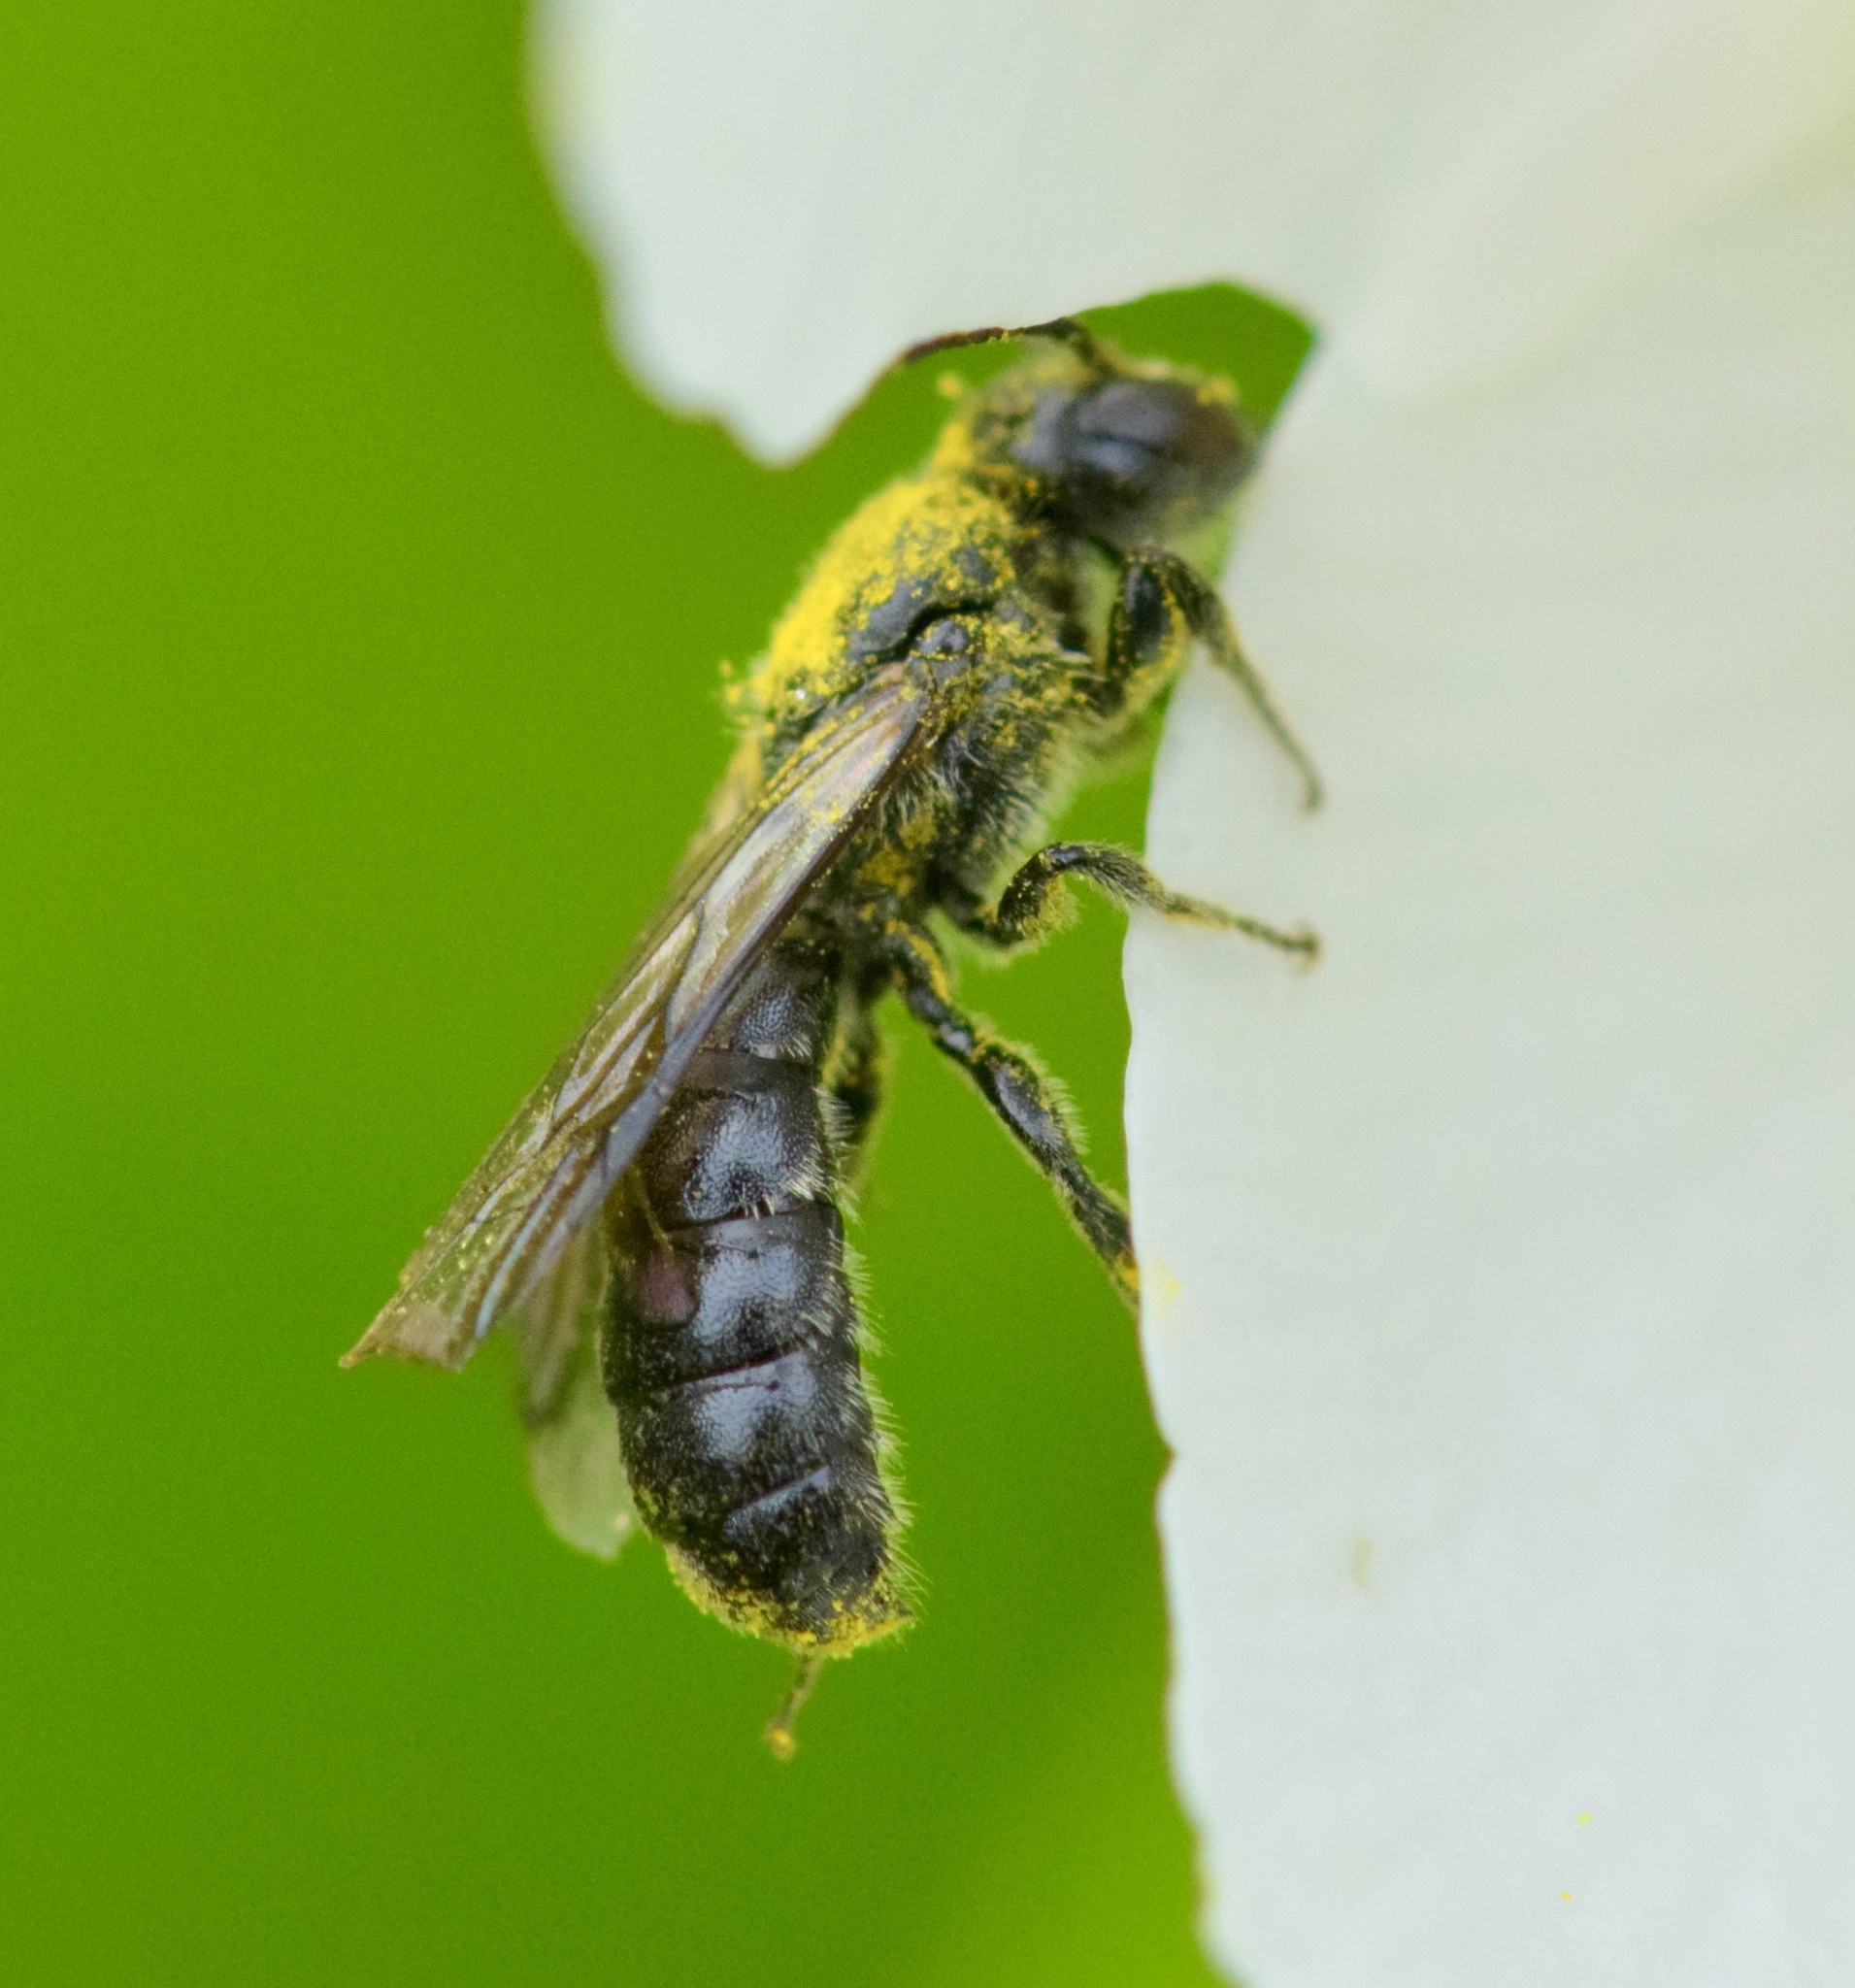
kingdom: Animalia
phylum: Arthropoda
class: Insecta
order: Hymenoptera
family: Megachilidae
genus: Chelostoma
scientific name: Chelostoma philadelphi
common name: Mock-orange scissor bee
